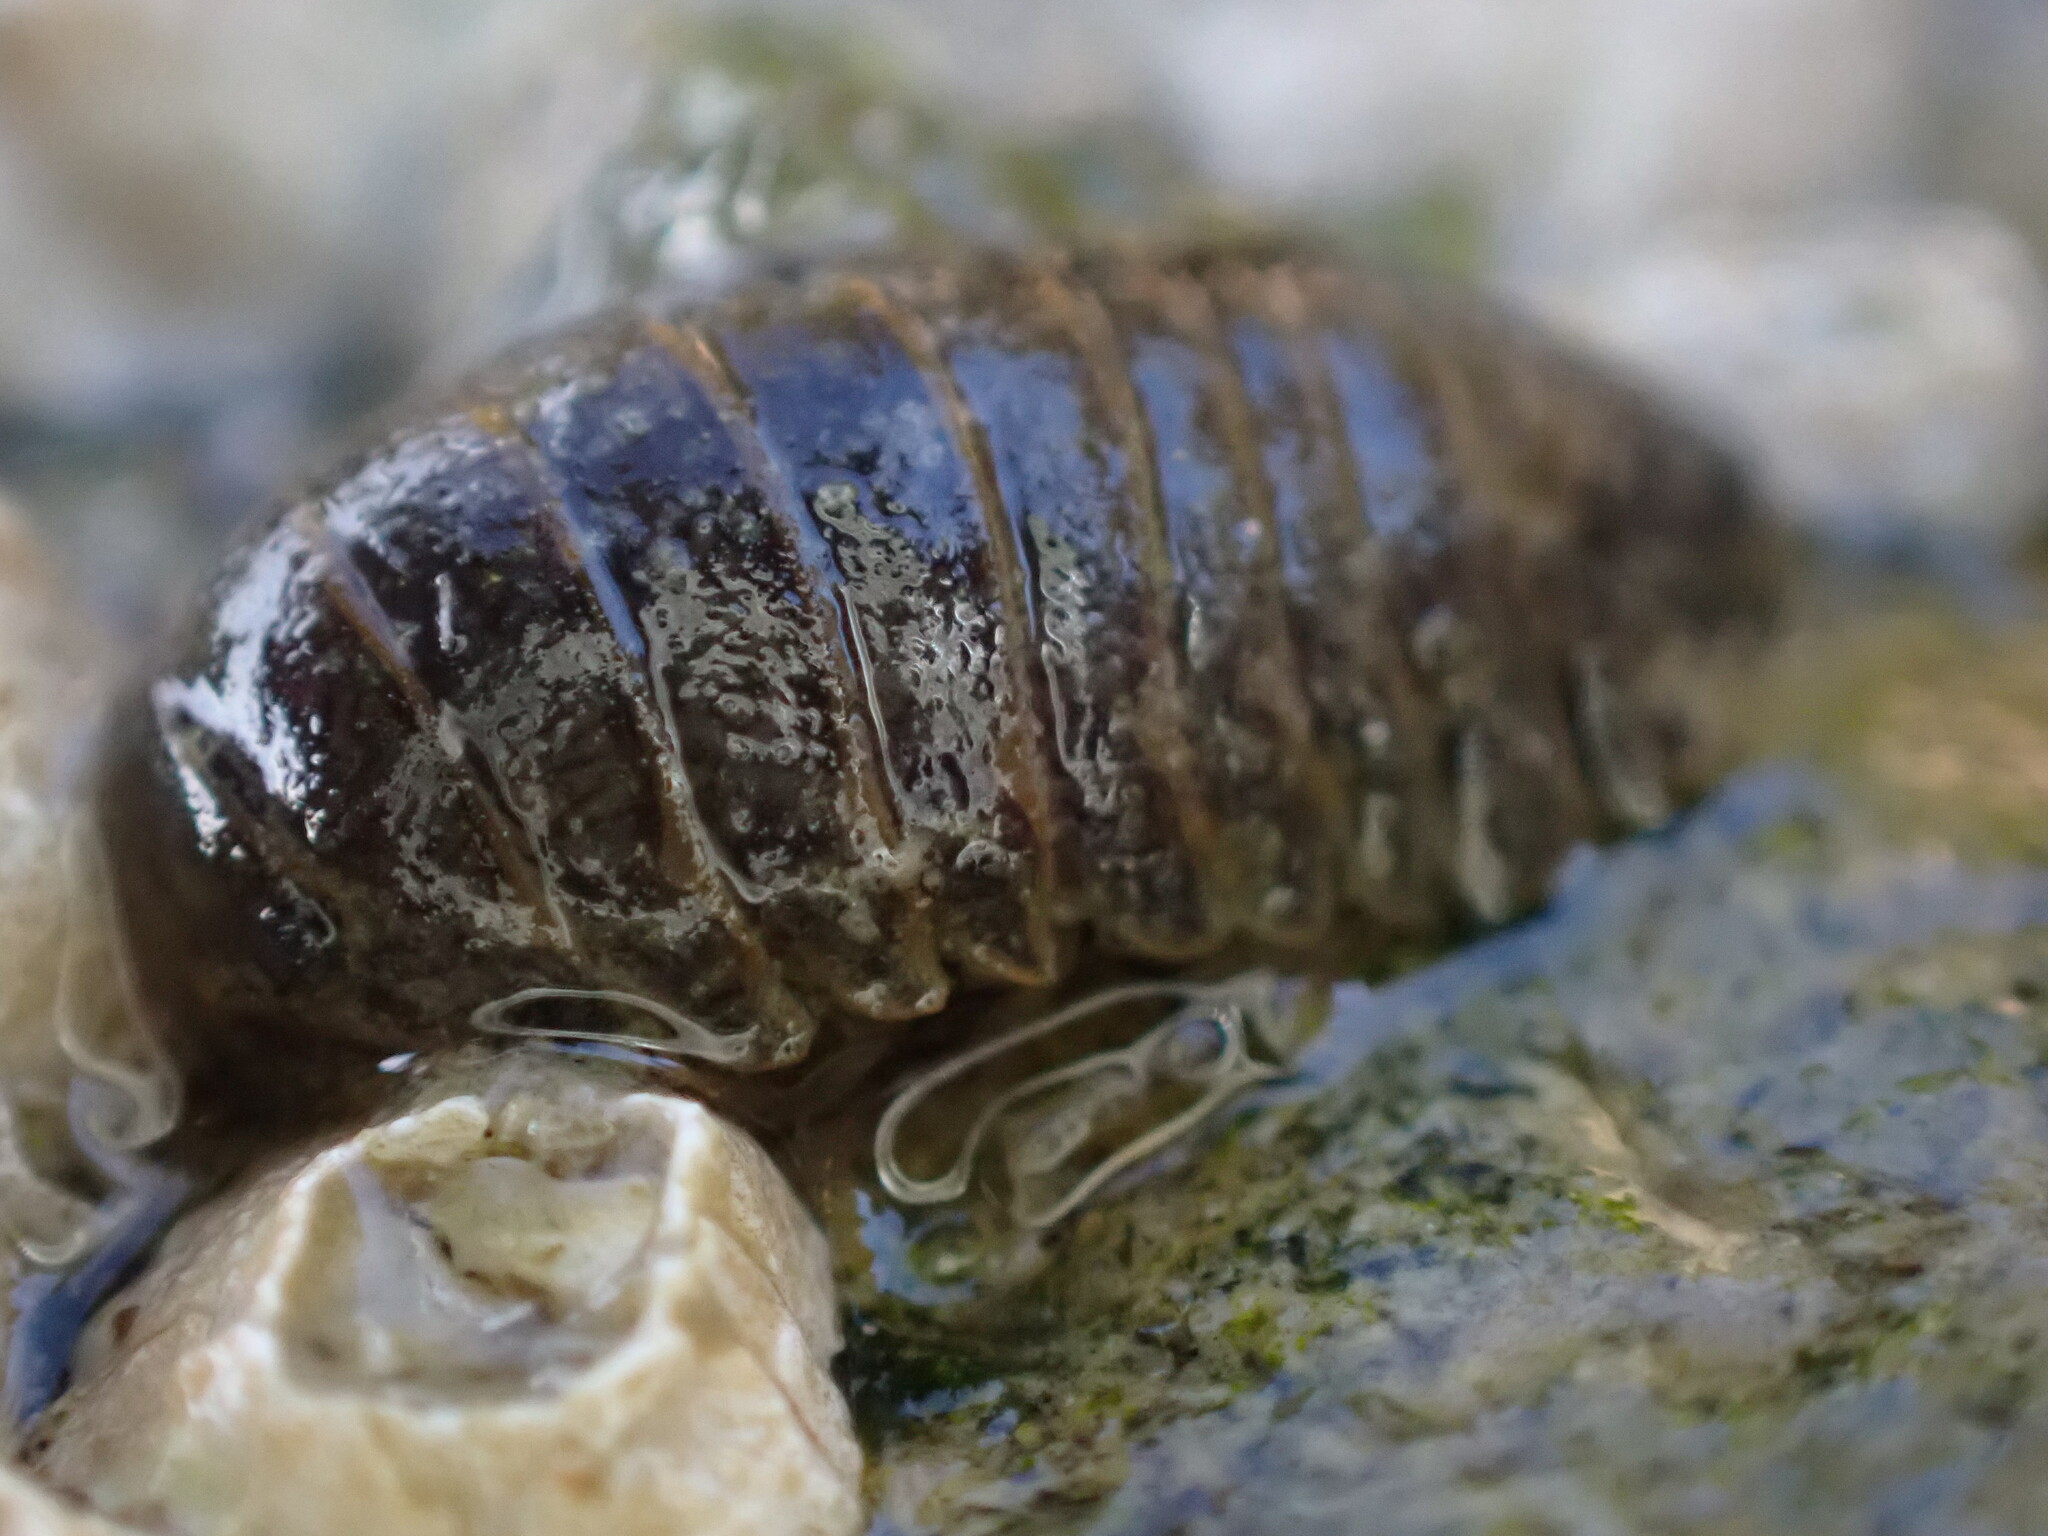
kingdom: Animalia
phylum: Arthropoda
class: Malacostraca
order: Isopoda
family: Sphaeromatidae
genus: Gnorimosphaeroma
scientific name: Gnorimosphaeroma oregonense
